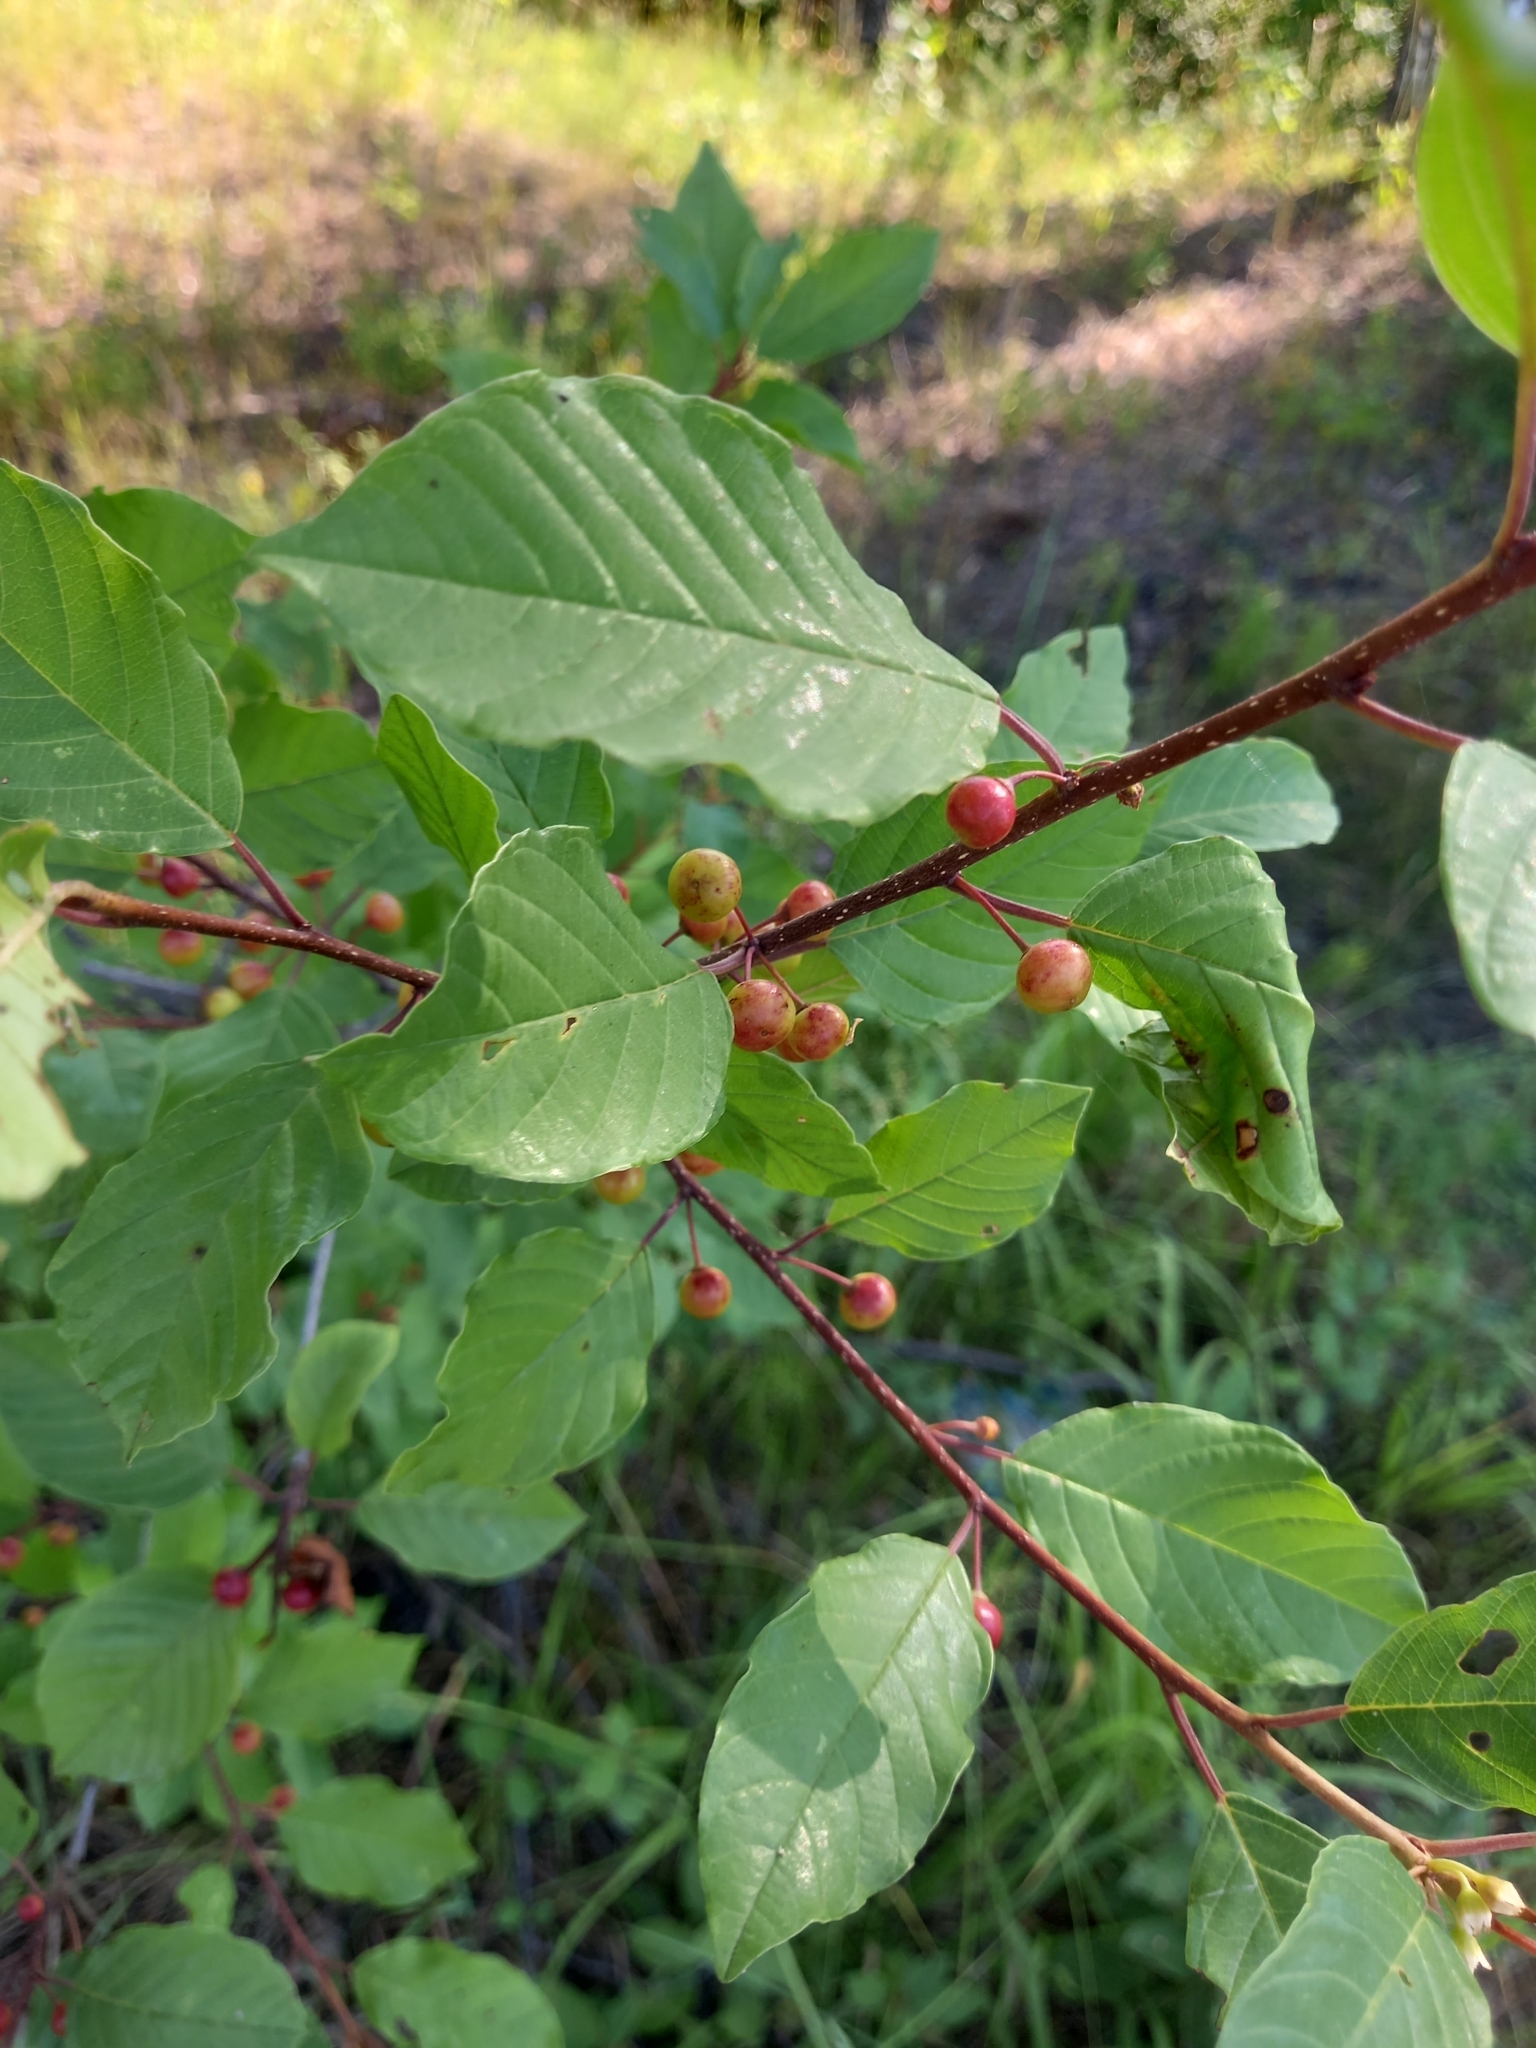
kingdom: Plantae
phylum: Tracheophyta
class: Magnoliopsida
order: Rosales
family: Rhamnaceae
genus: Frangula
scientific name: Frangula alnus
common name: Alder buckthorn
